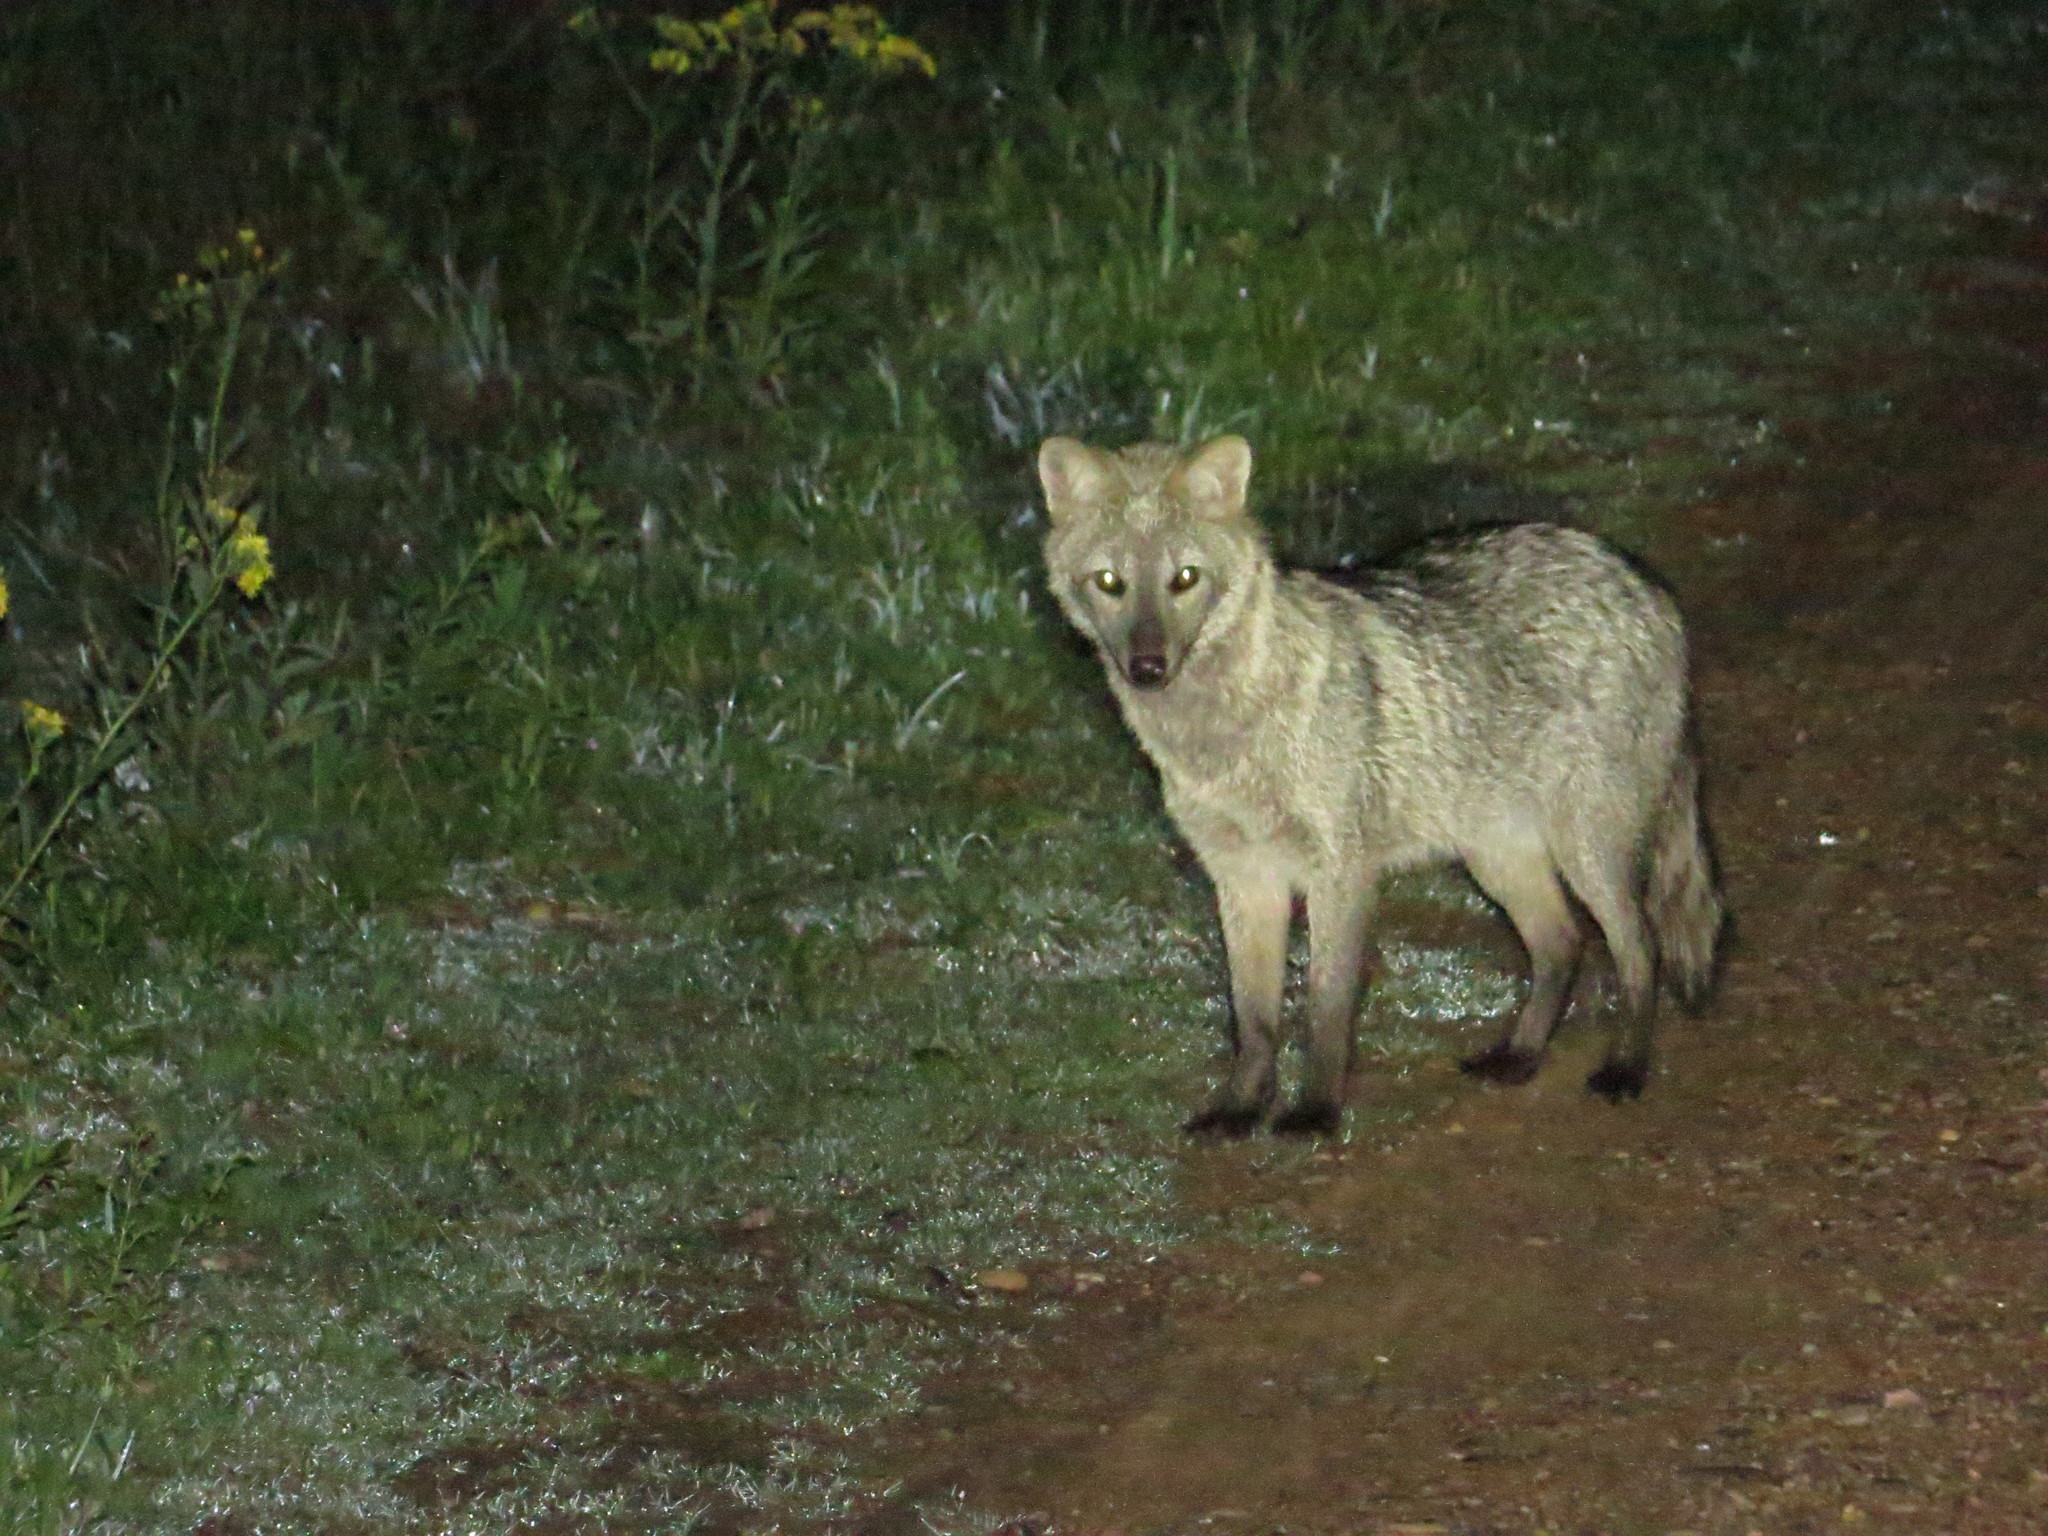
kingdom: Animalia
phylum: Chordata
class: Mammalia
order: Carnivora
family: Canidae
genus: Cerdocyon
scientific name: Cerdocyon thous
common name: Crab-eating fox
